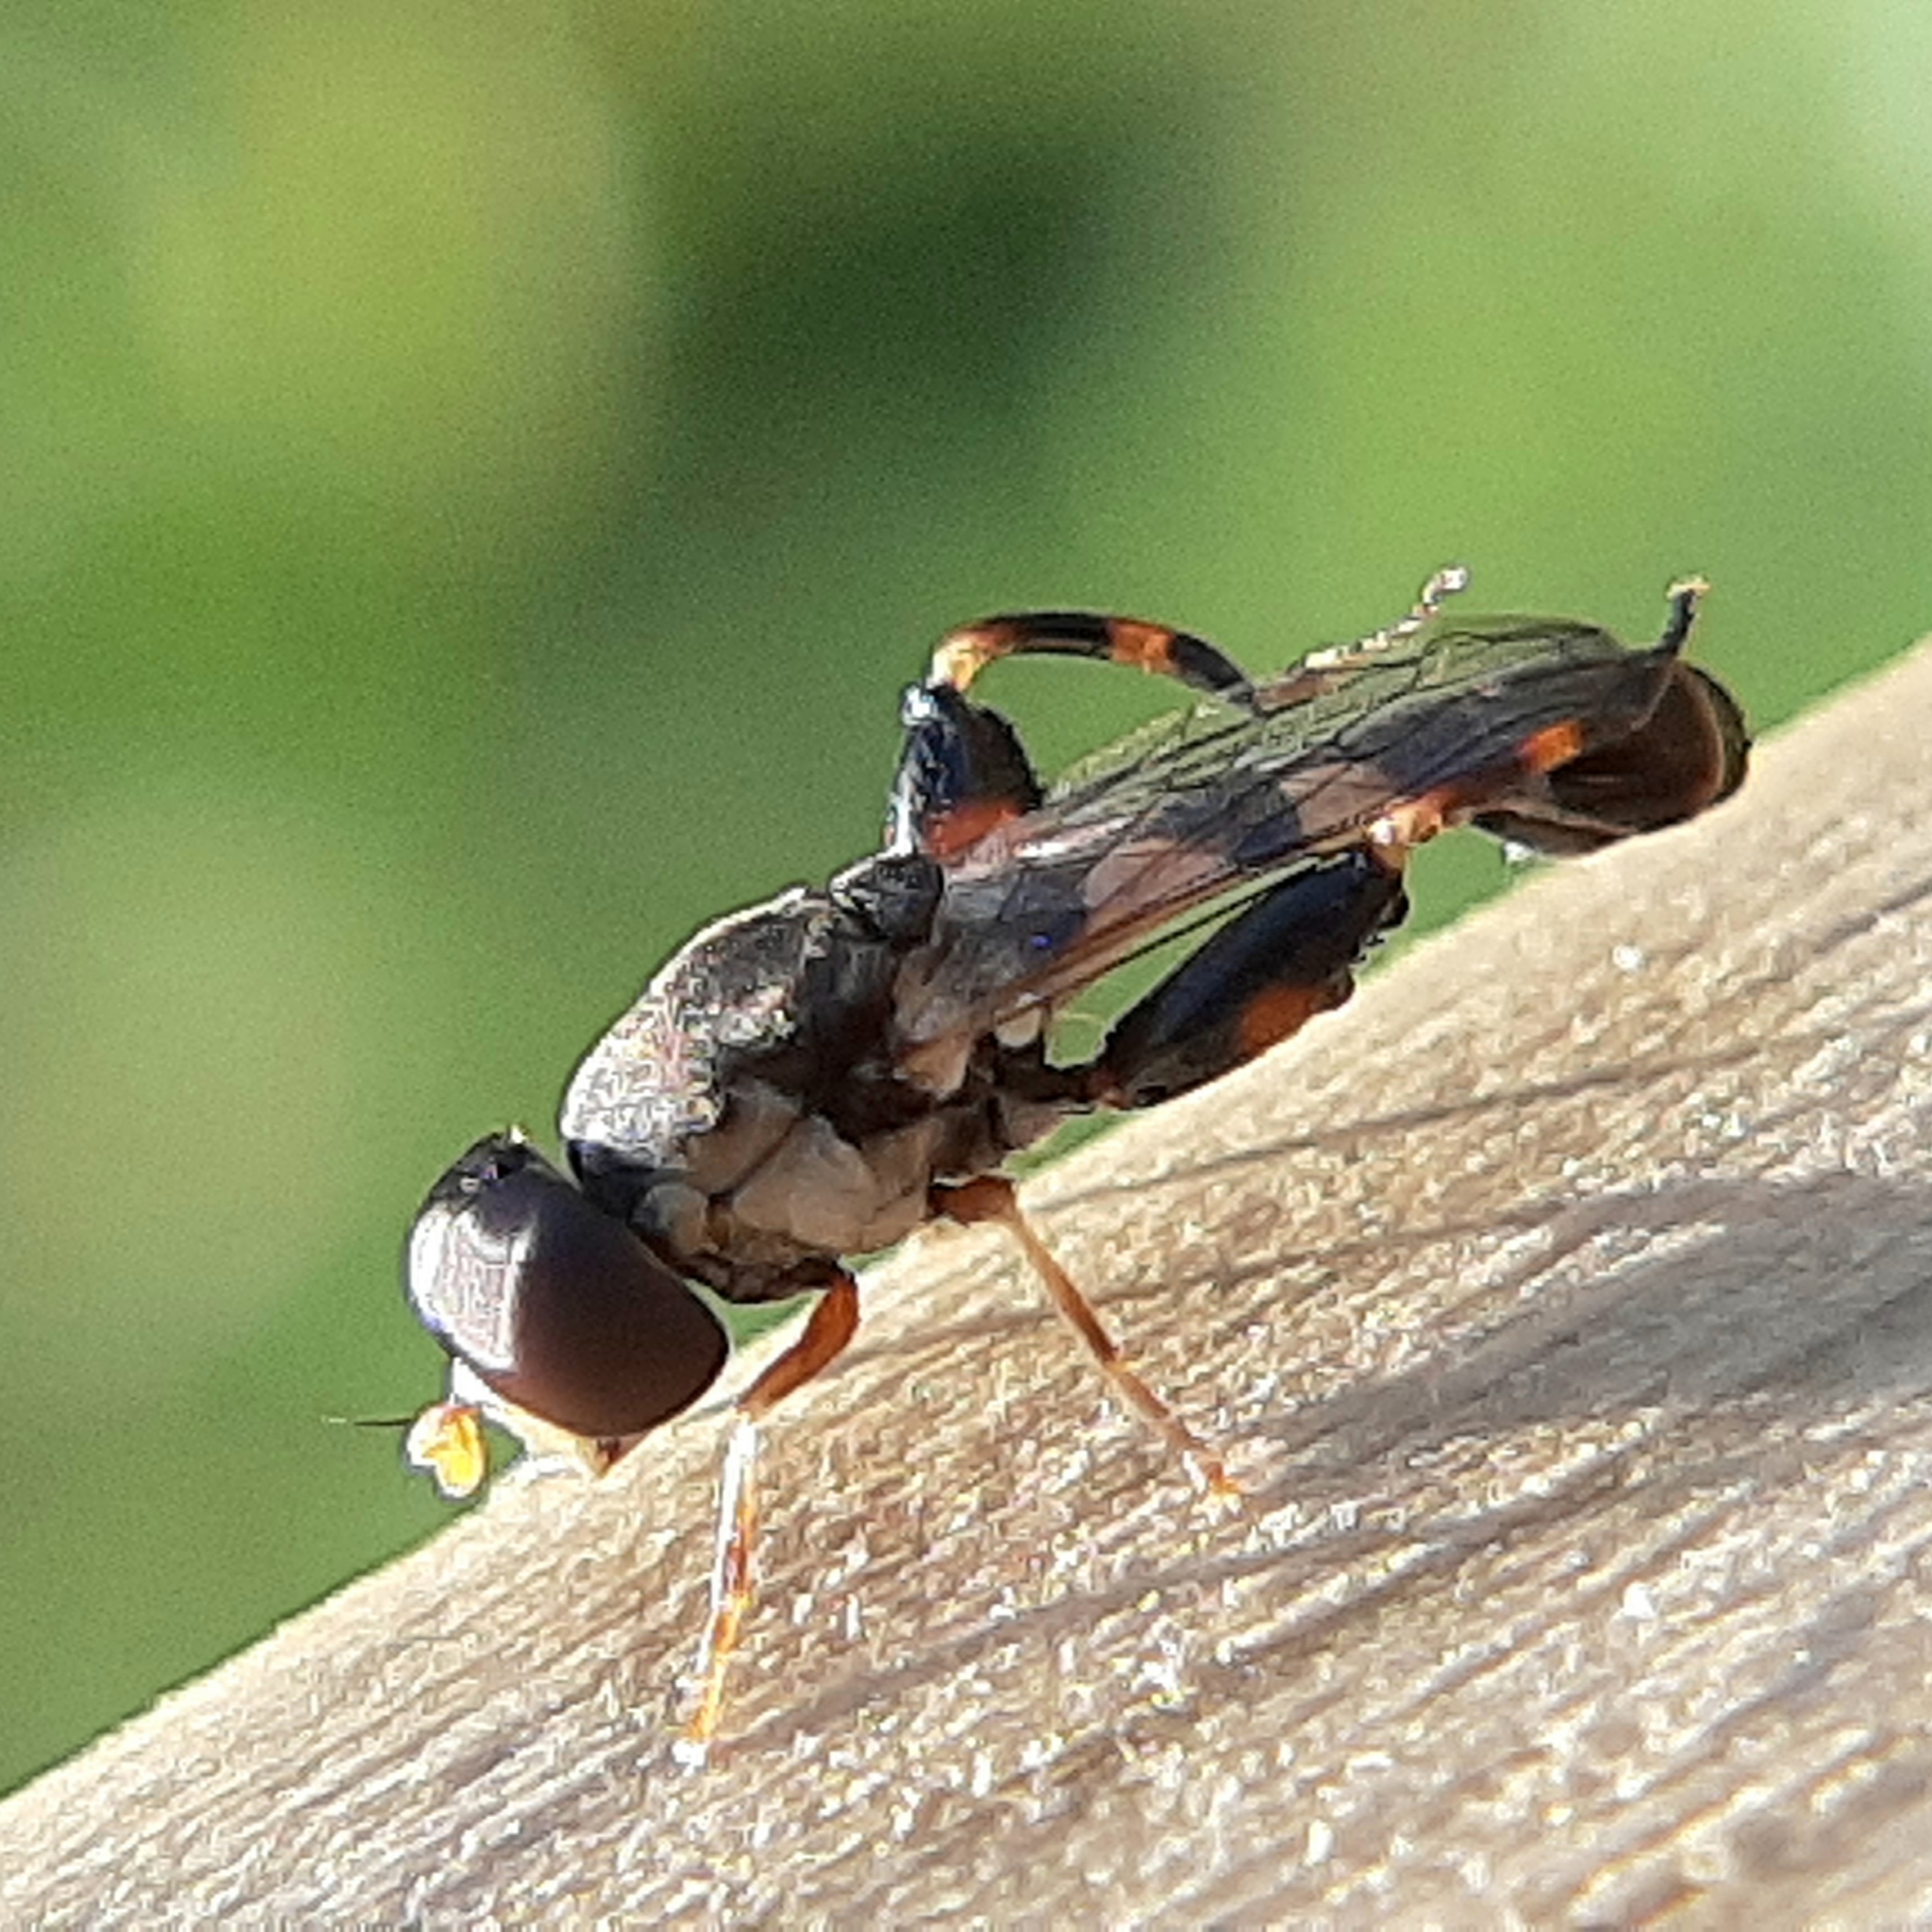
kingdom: Animalia
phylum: Arthropoda
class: Insecta
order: Diptera
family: Syrphidae
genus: Syritta
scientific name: Syritta pipiens
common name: Hover fly
